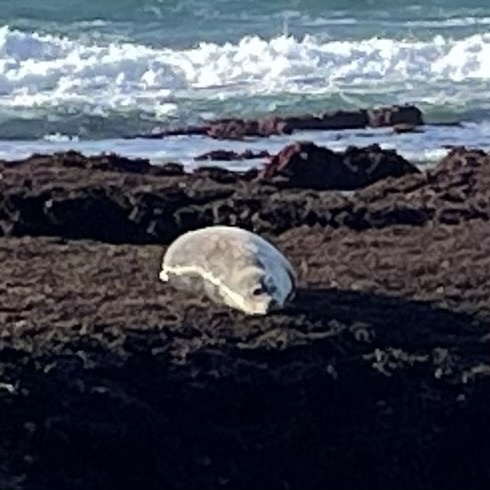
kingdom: Animalia
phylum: Chordata
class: Mammalia
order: Carnivora
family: Phocidae
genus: Phoca
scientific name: Phoca vitulina
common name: Harbor seal
